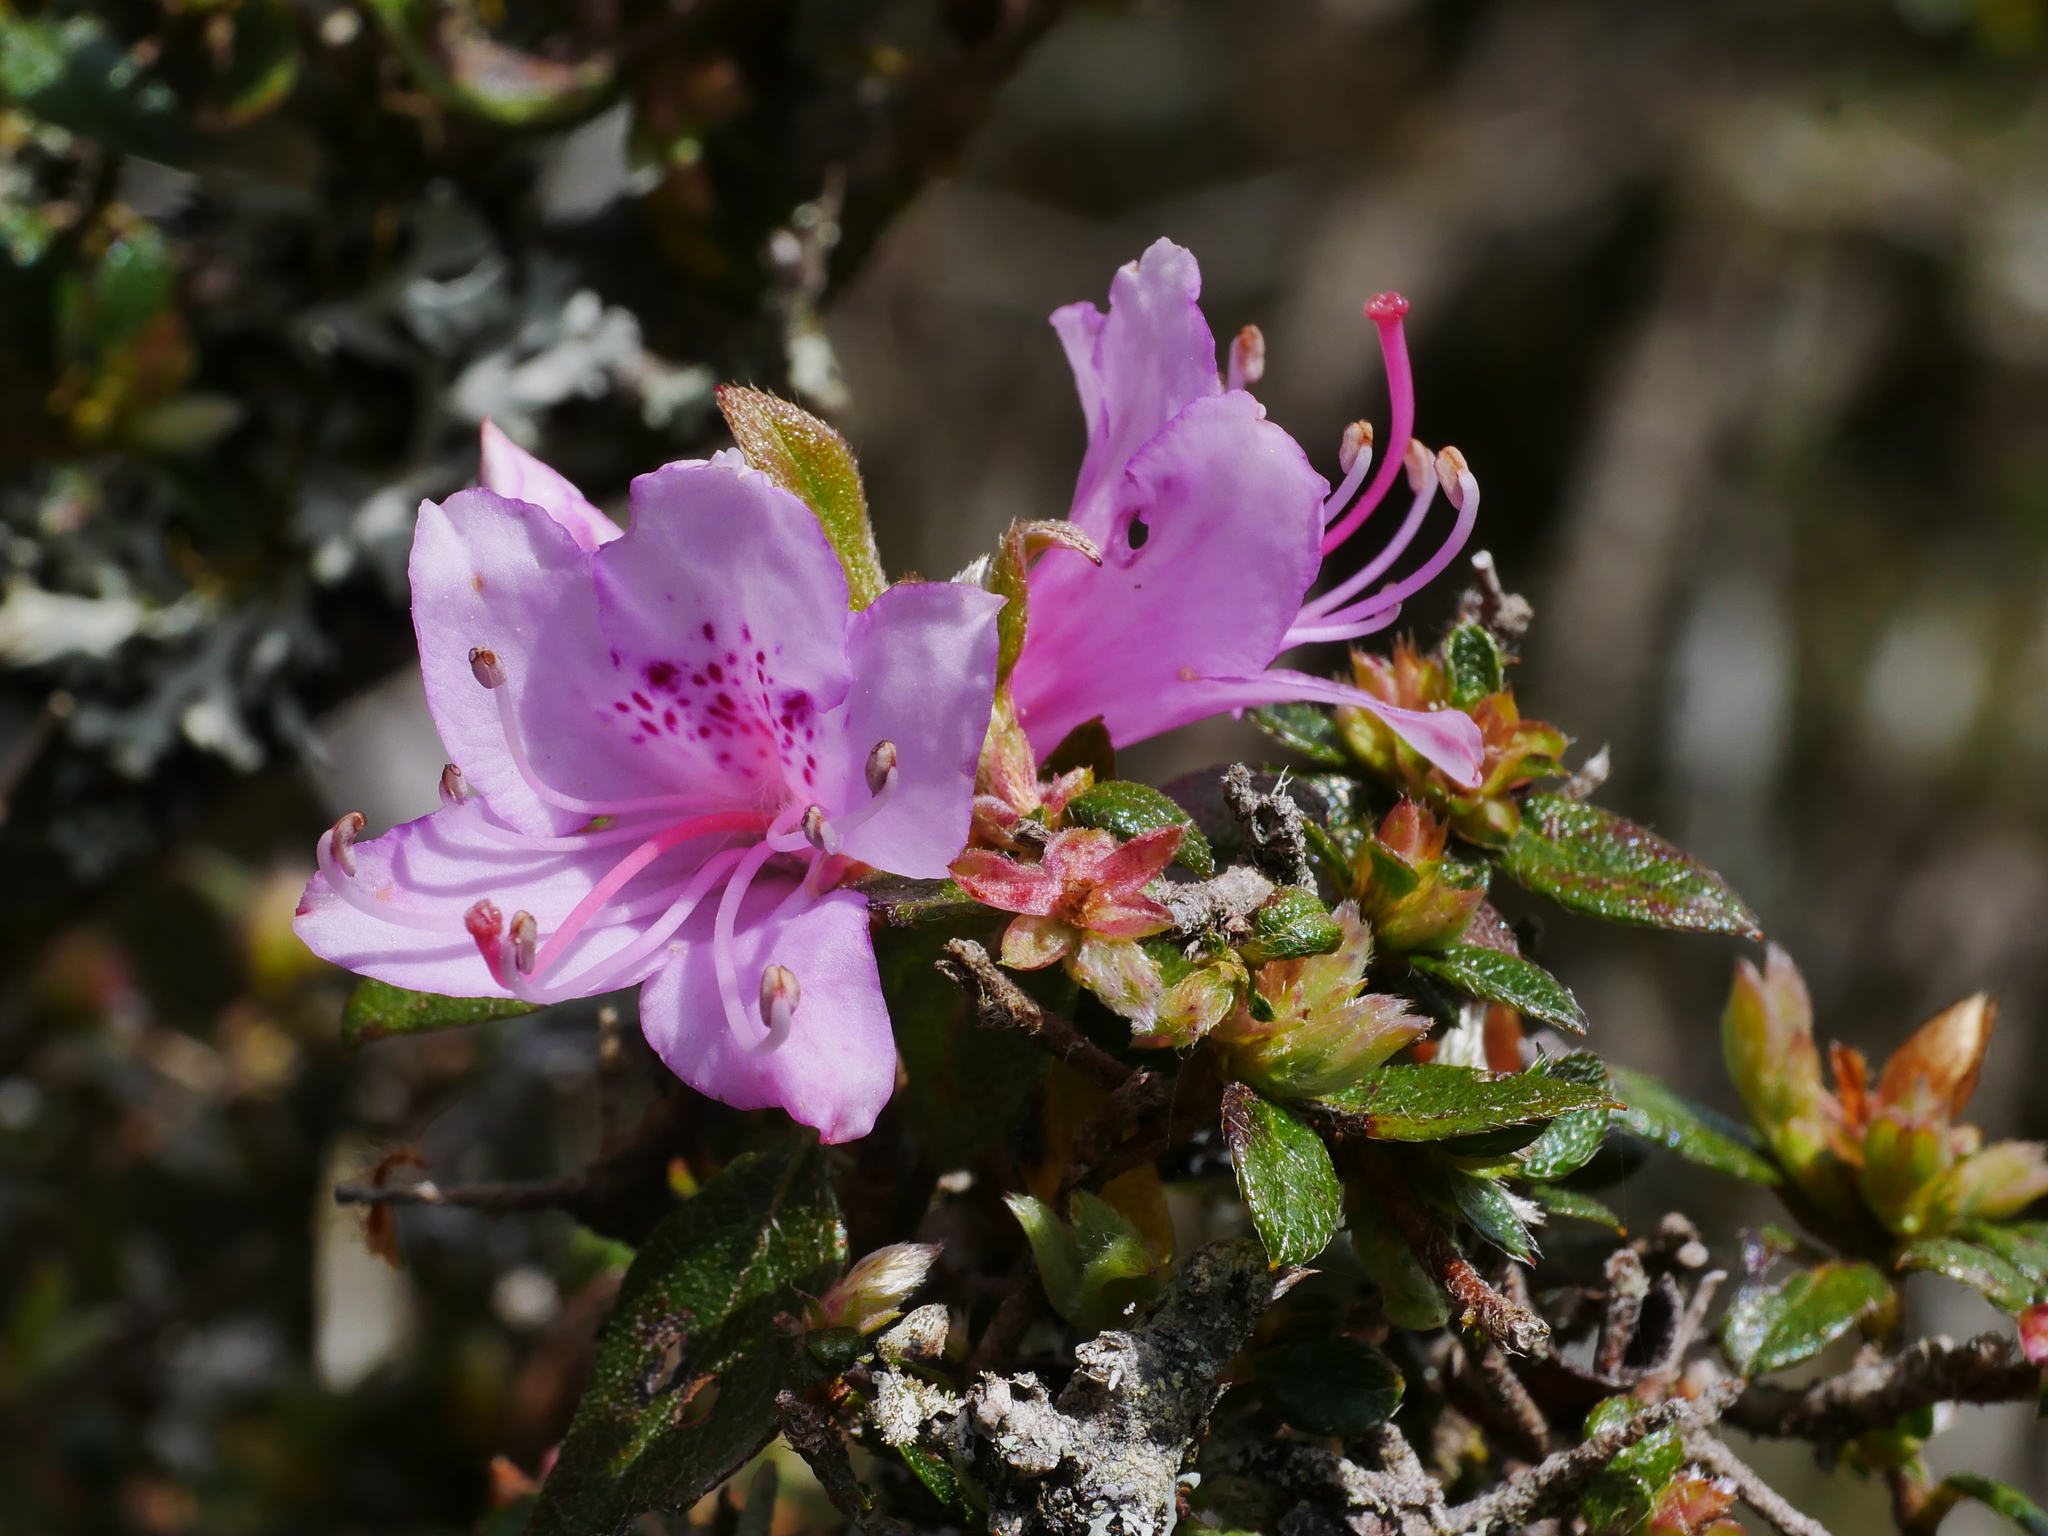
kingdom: Plantae
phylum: Tracheophyta
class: Magnoliopsida
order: Ericales
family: Ericaceae
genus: Rhododendron
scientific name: Rhododendron rubropilosum
